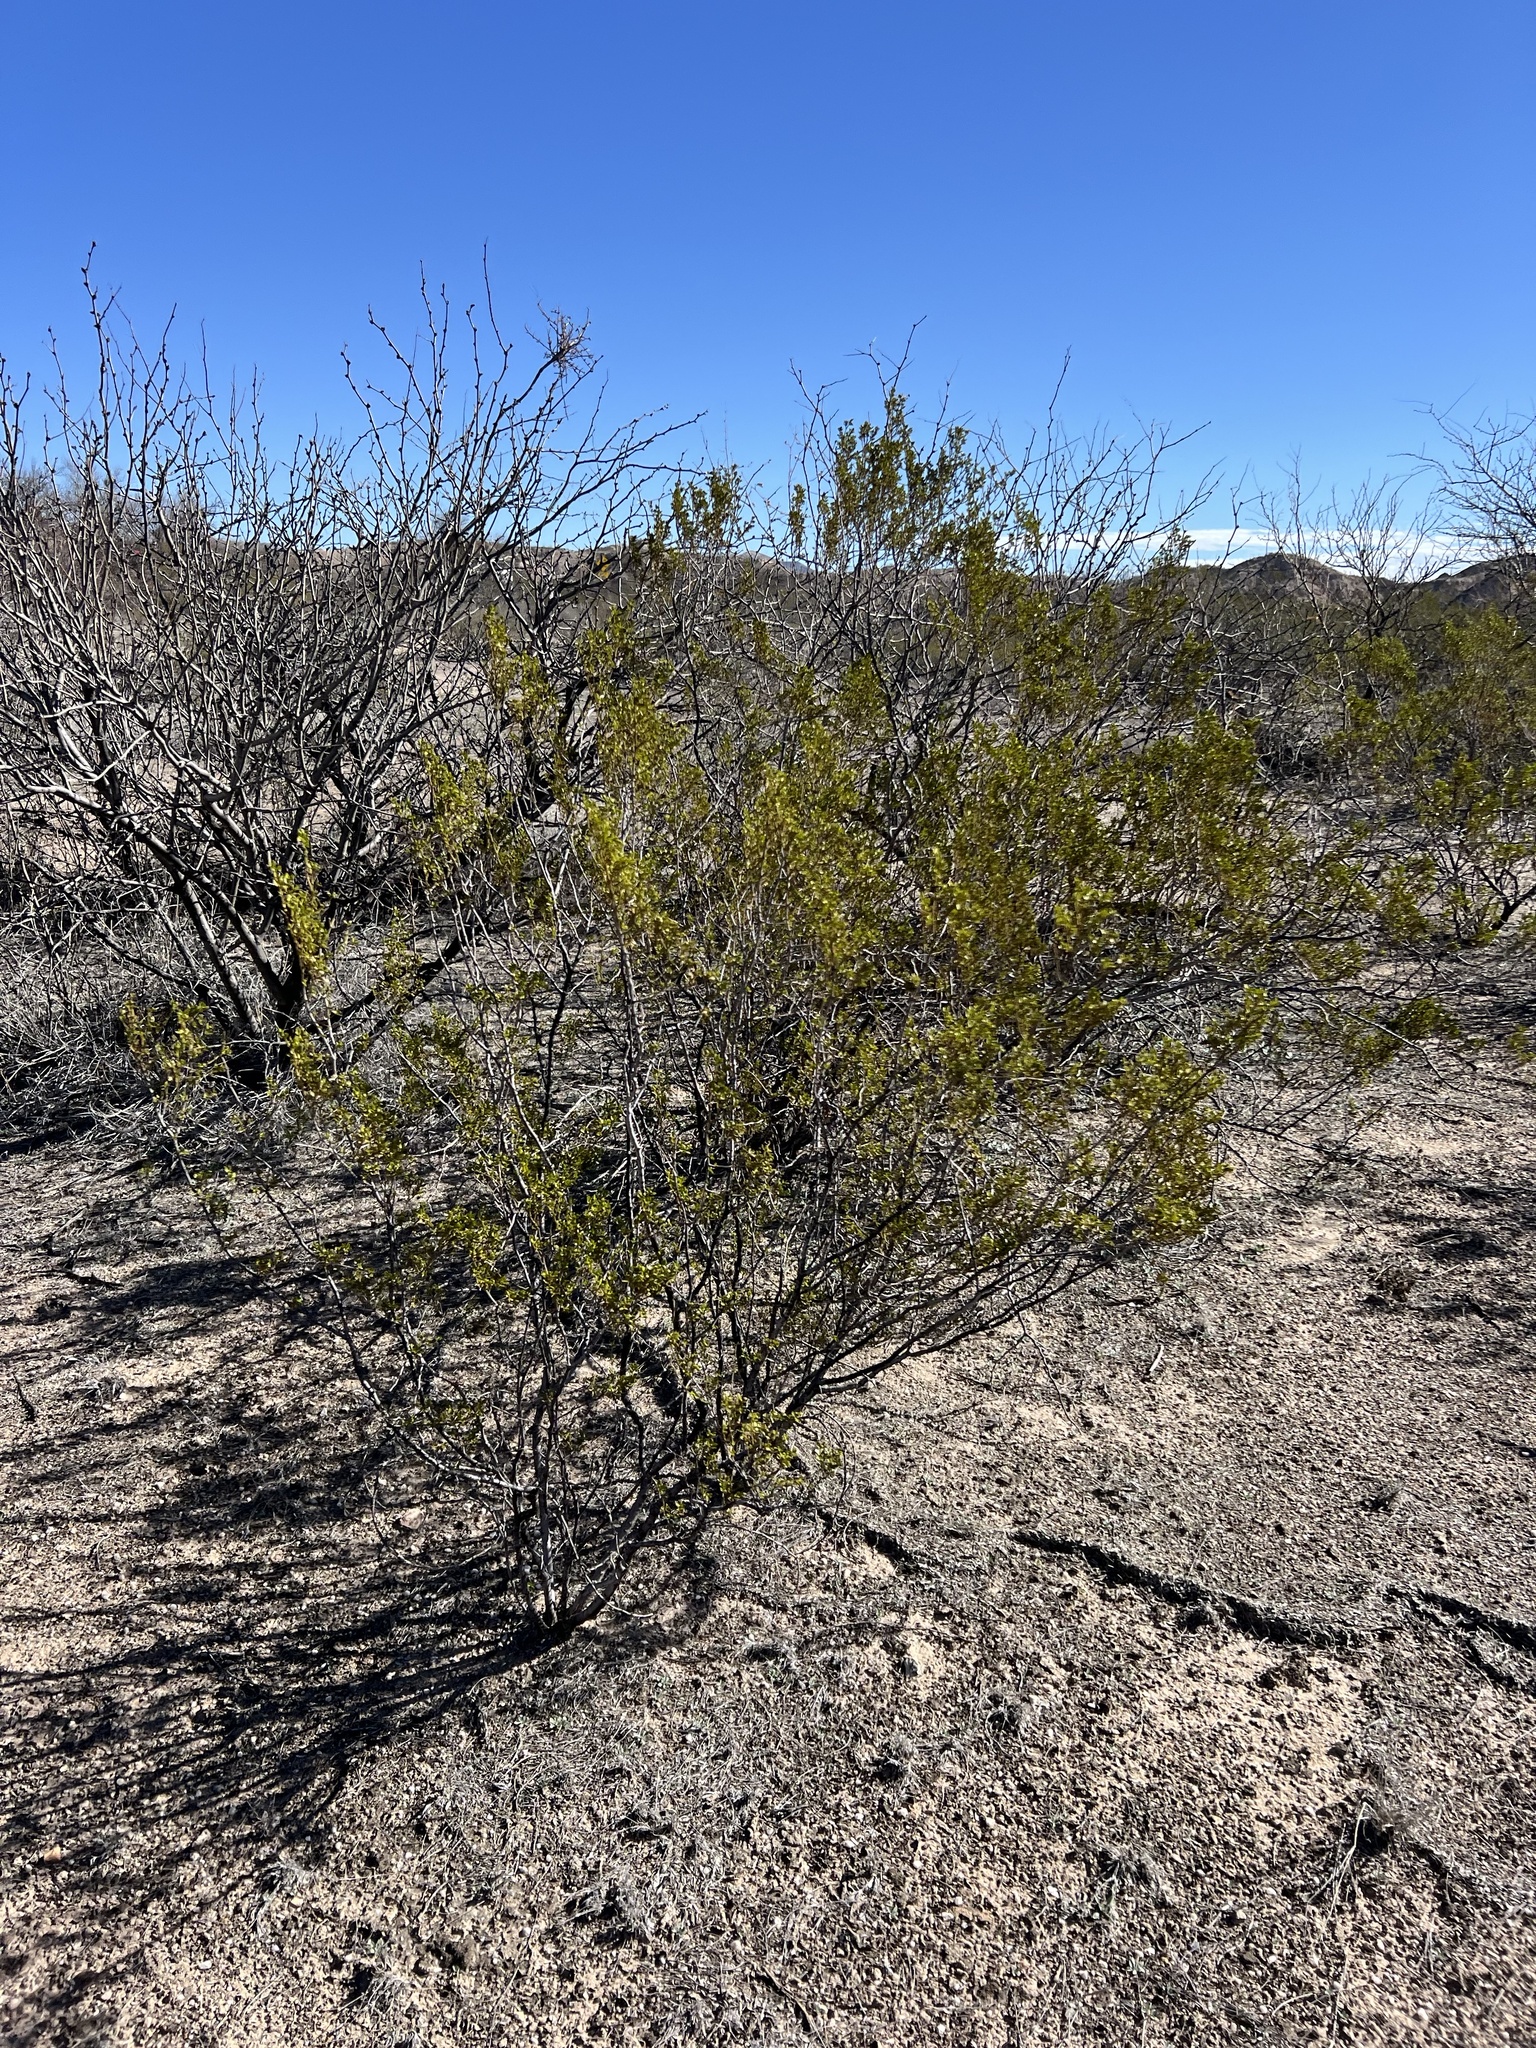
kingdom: Plantae
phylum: Tracheophyta
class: Magnoliopsida
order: Zygophyllales
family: Zygophyllaceae
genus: Larrea
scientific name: Larrea tridentata
